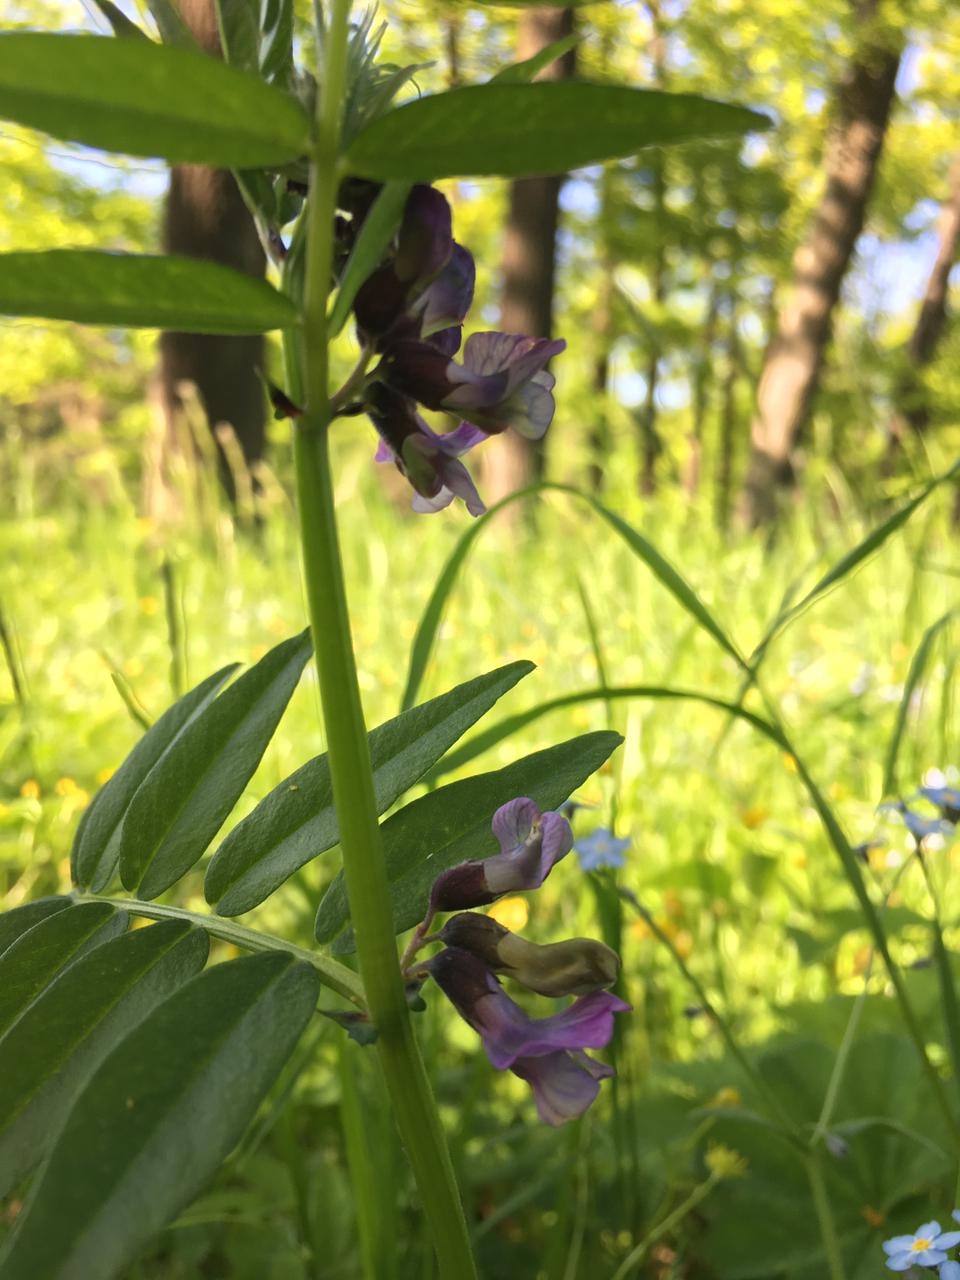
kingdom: Plantae
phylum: Tracheophyta
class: Magnoliopsida
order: Fabales
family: Fabaceae
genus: Vicia
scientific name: Vicia sepium
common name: Bush vetch
